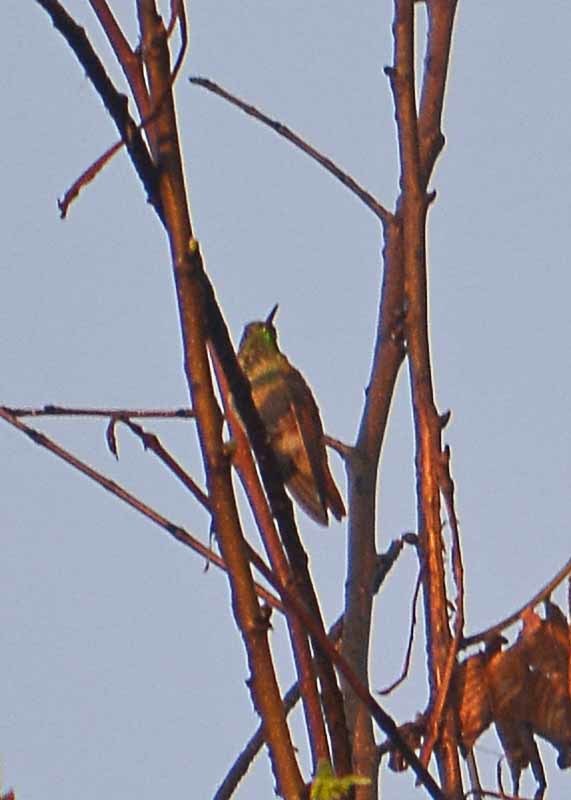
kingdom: Animalia
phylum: Chordata
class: Aves
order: Apodiformes
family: Trochilidae
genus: Saucerottia
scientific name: Saucerottia beryllina
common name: Berylline hummingbird
